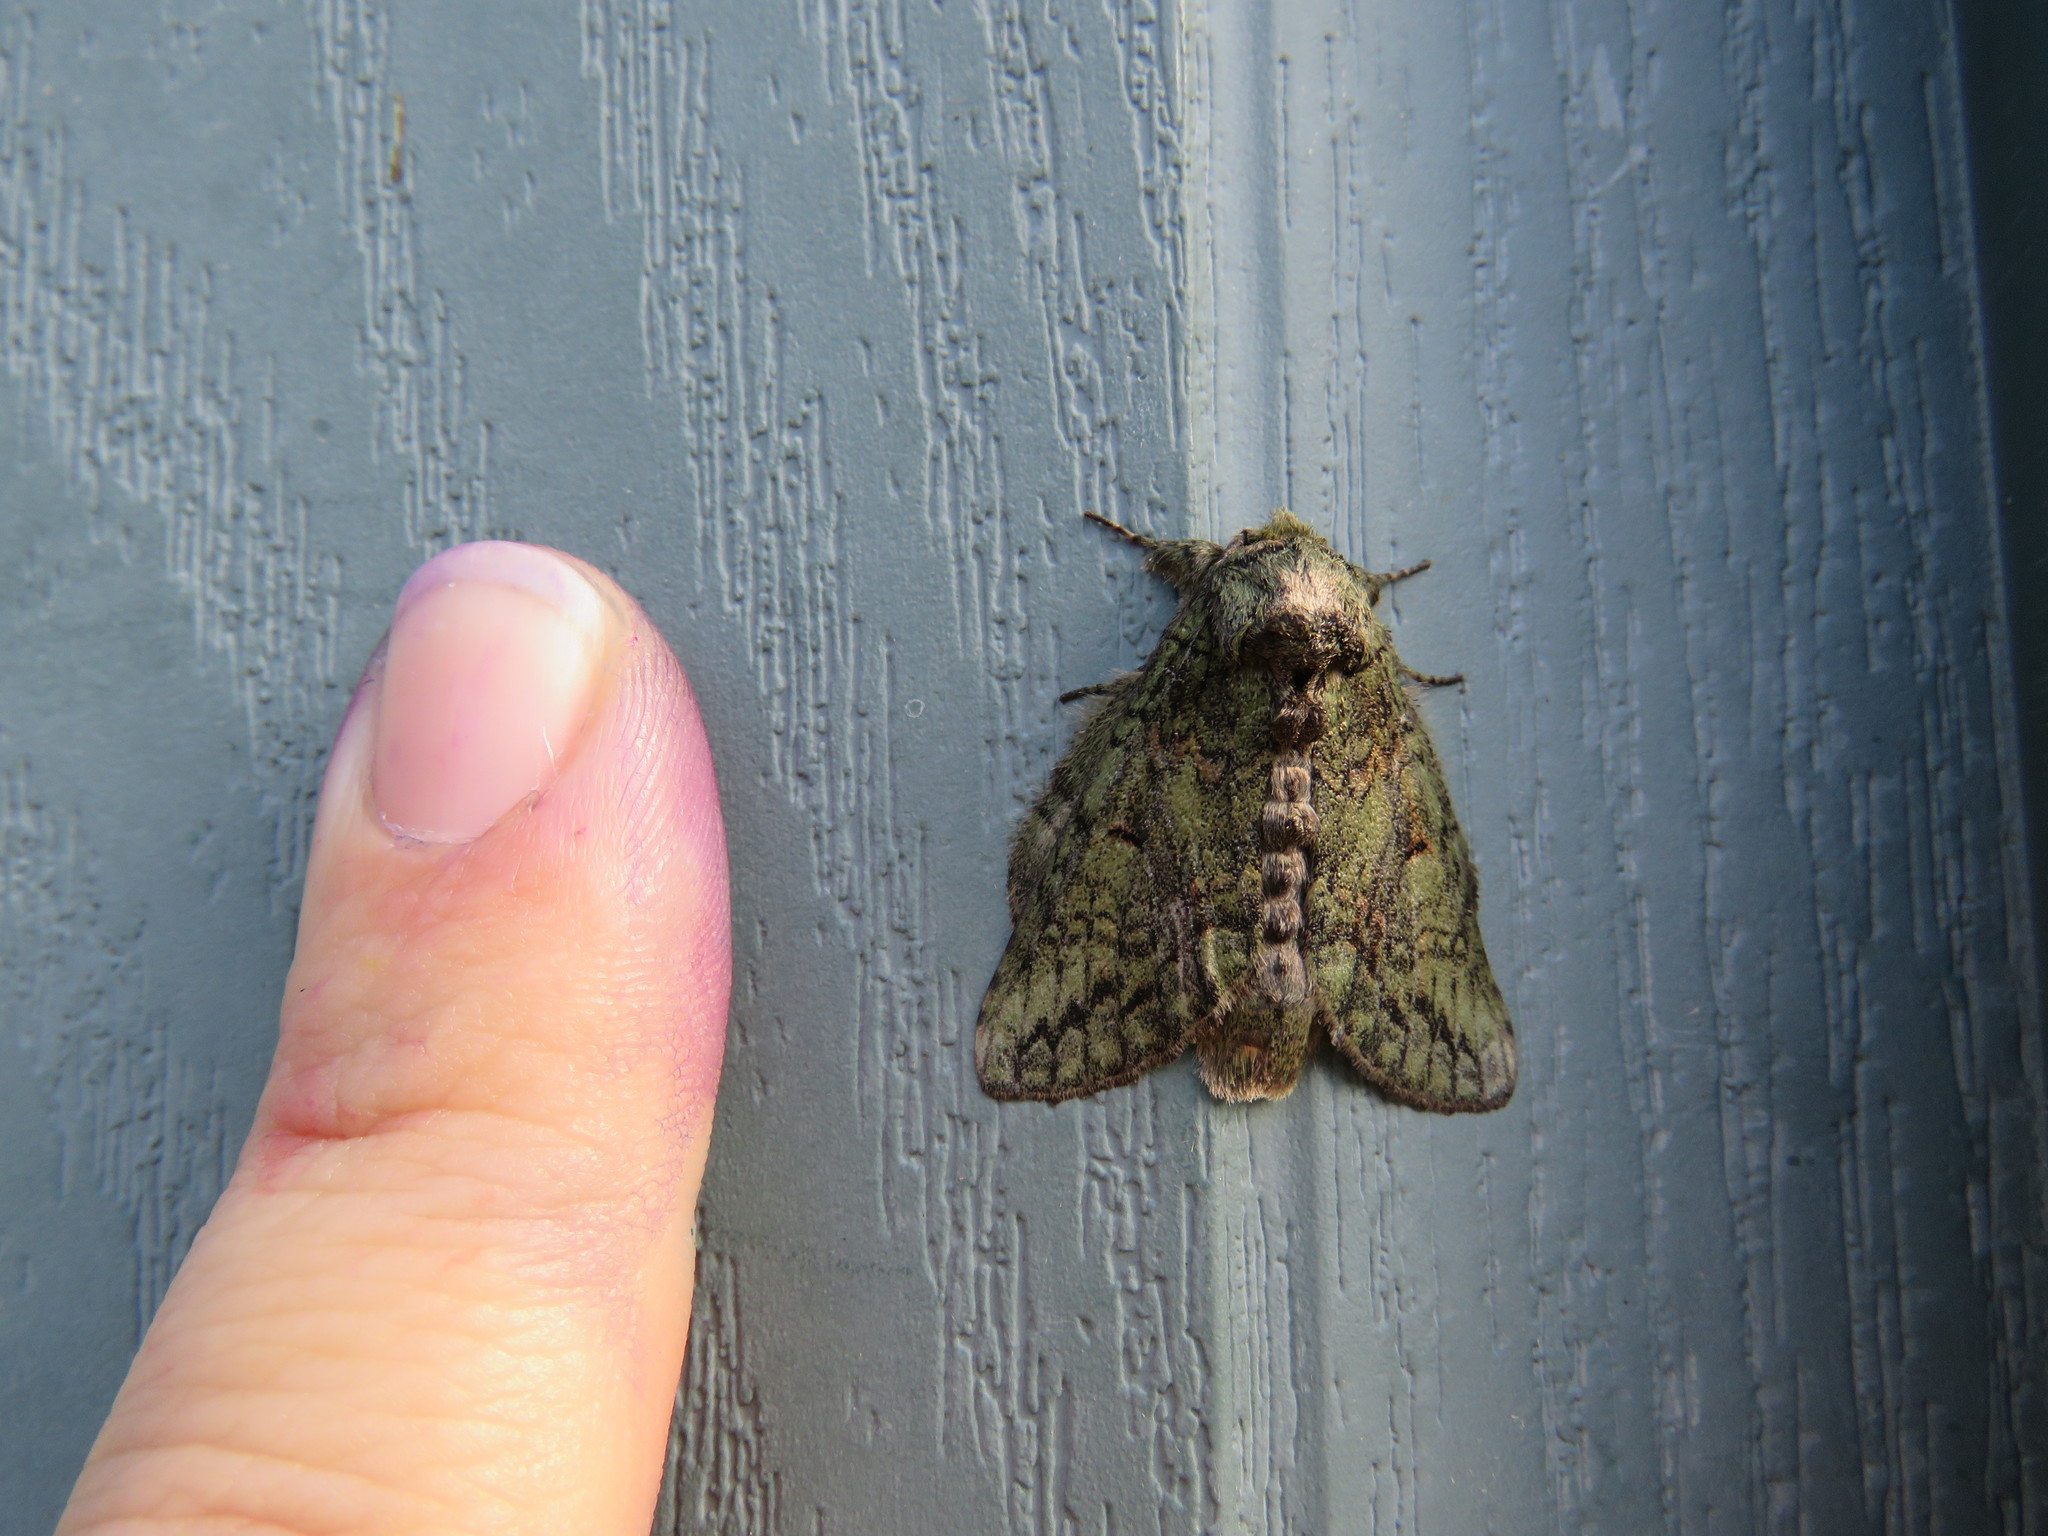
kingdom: Animalia
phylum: Arthropoda
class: Insecta
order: Lepidoptera
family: Notodontidae
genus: Heterocampa
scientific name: Heterocampa
